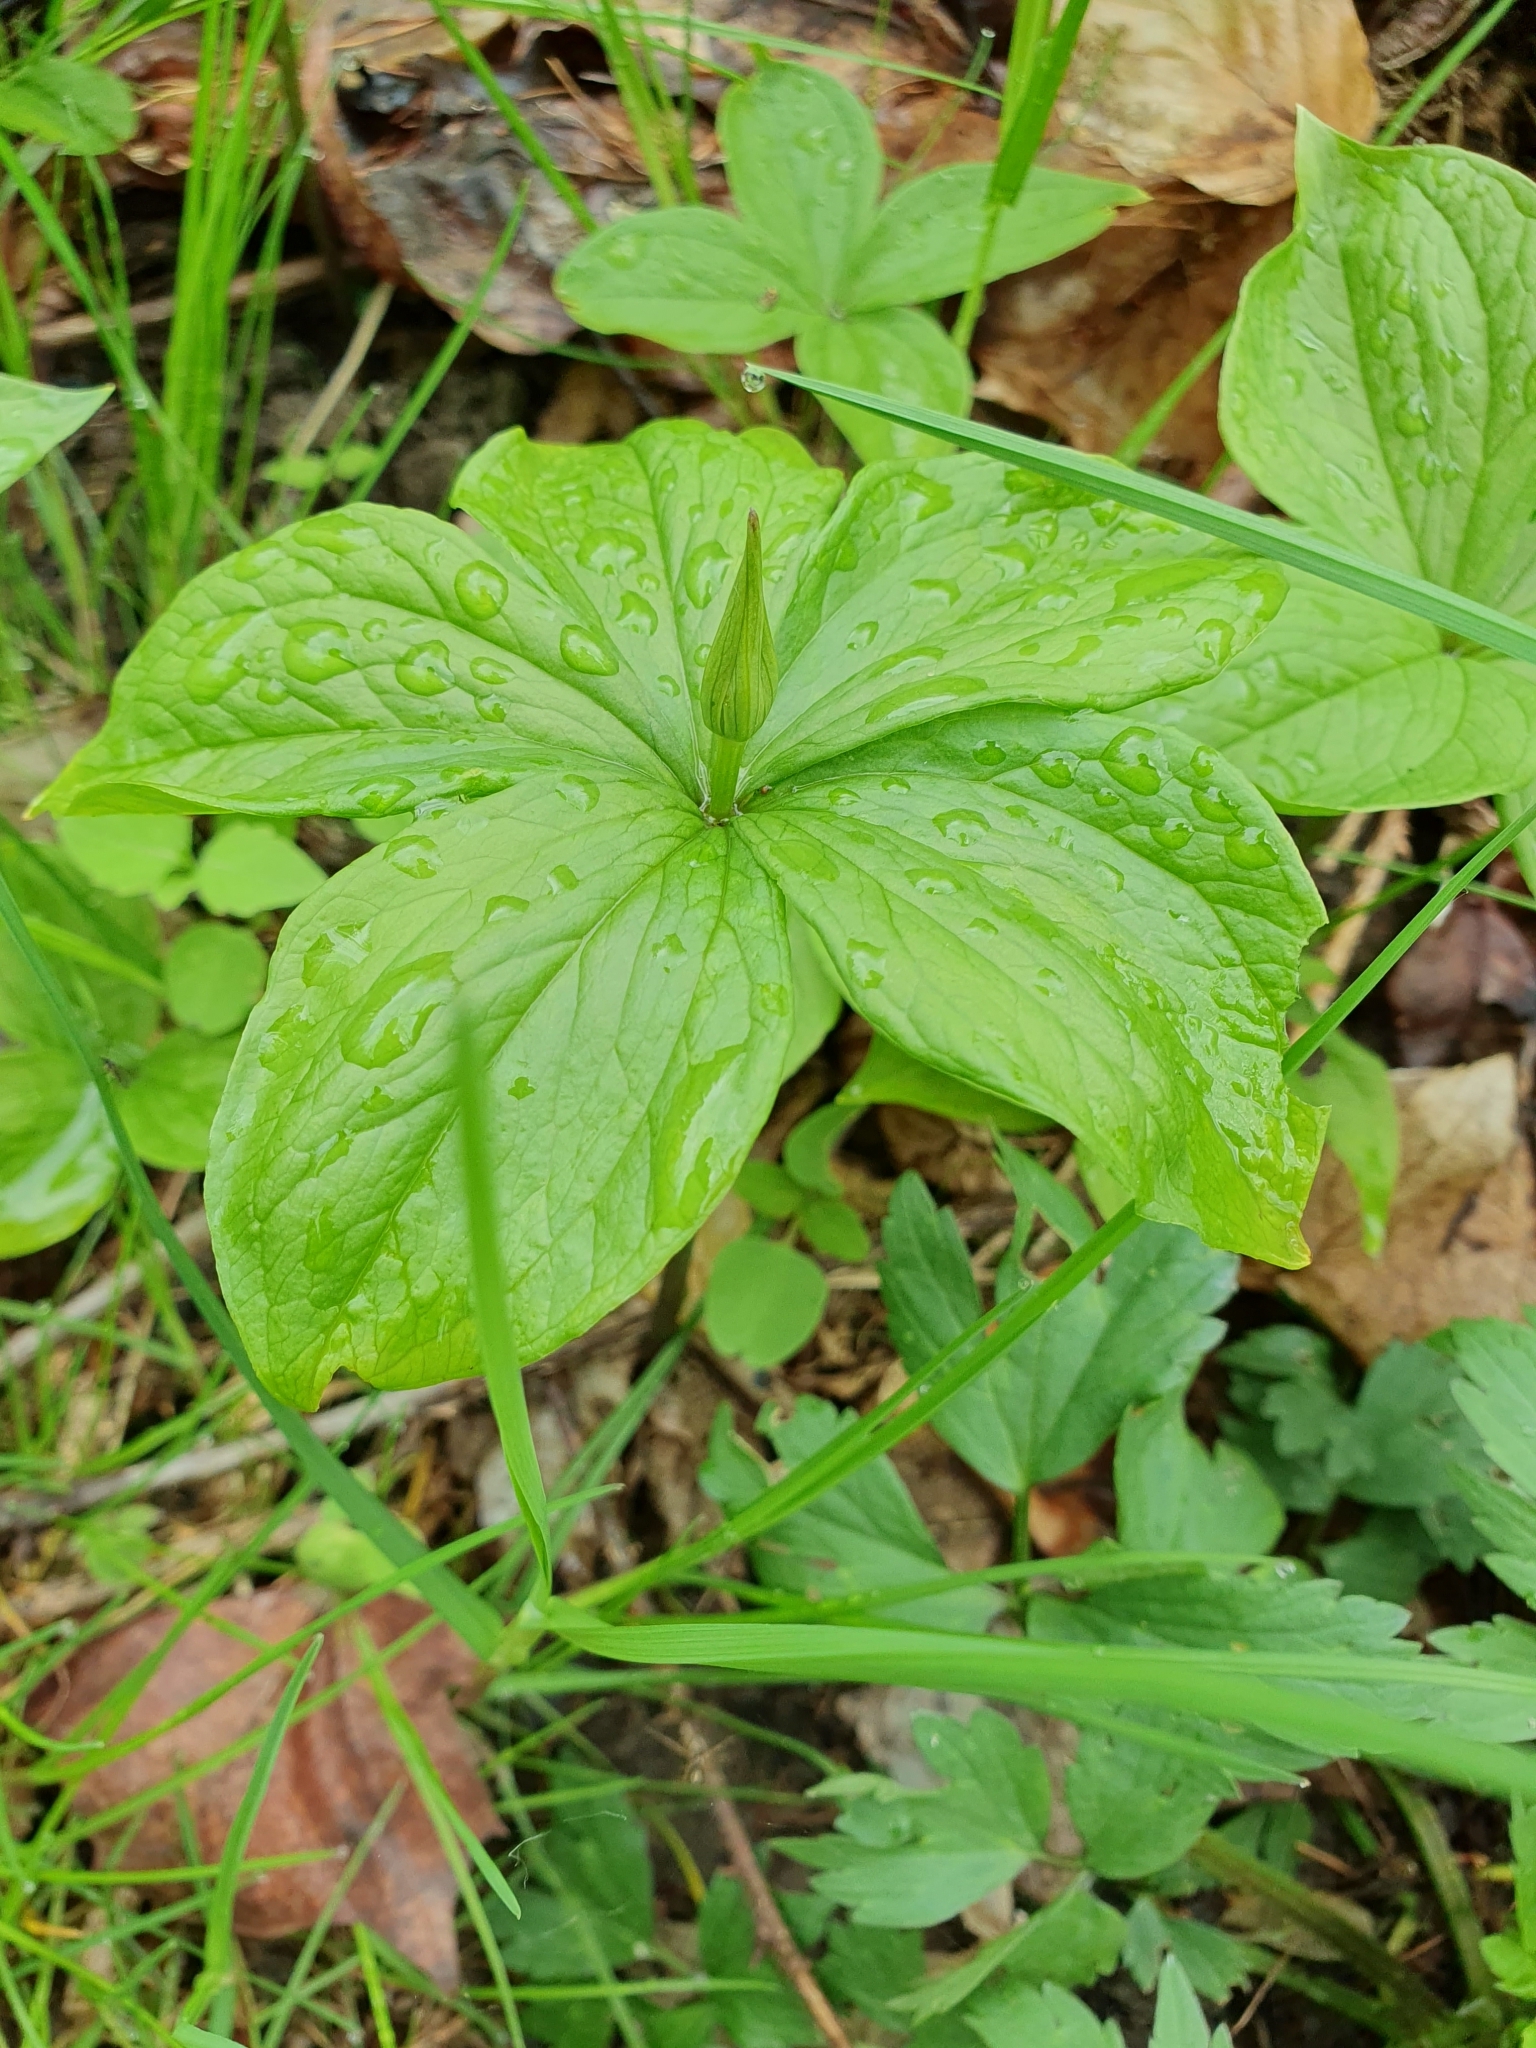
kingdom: Plantae
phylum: Tracheophyta
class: Liliopsida
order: Liliales
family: Melanthiaceae
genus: Paris
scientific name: Paris quadrifolia
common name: Herb-paris
